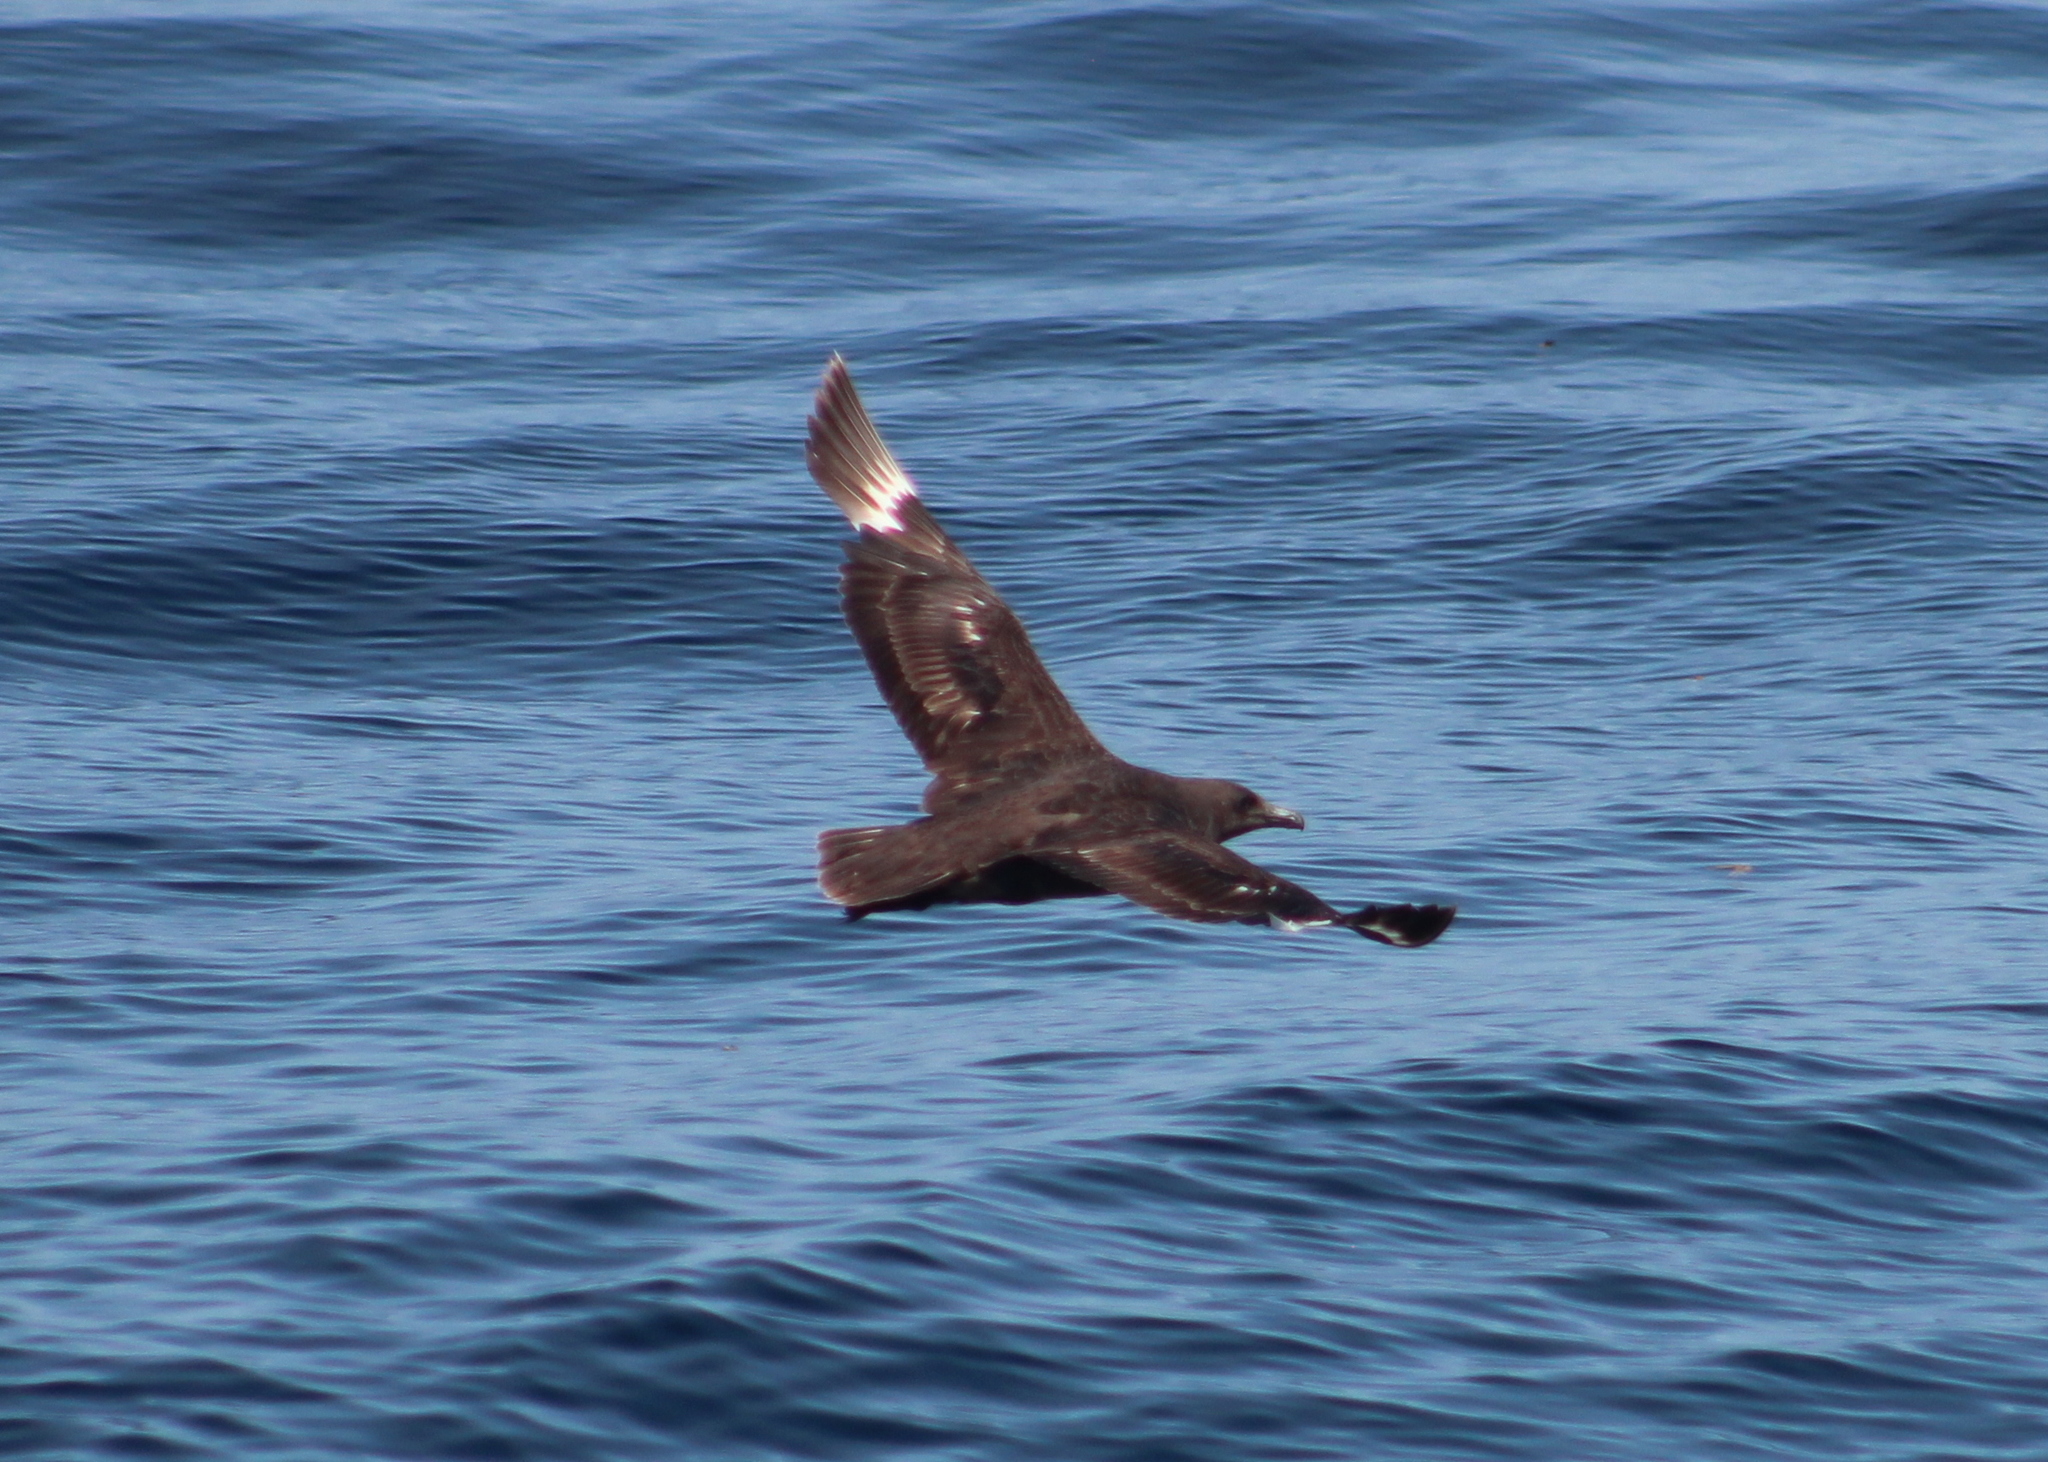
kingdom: Animalia
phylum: Chordata
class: Aves
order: Charadriiformes
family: Stercorariidae
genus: Stercorarius
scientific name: Stercorarius maccormicki
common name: South polar skua
